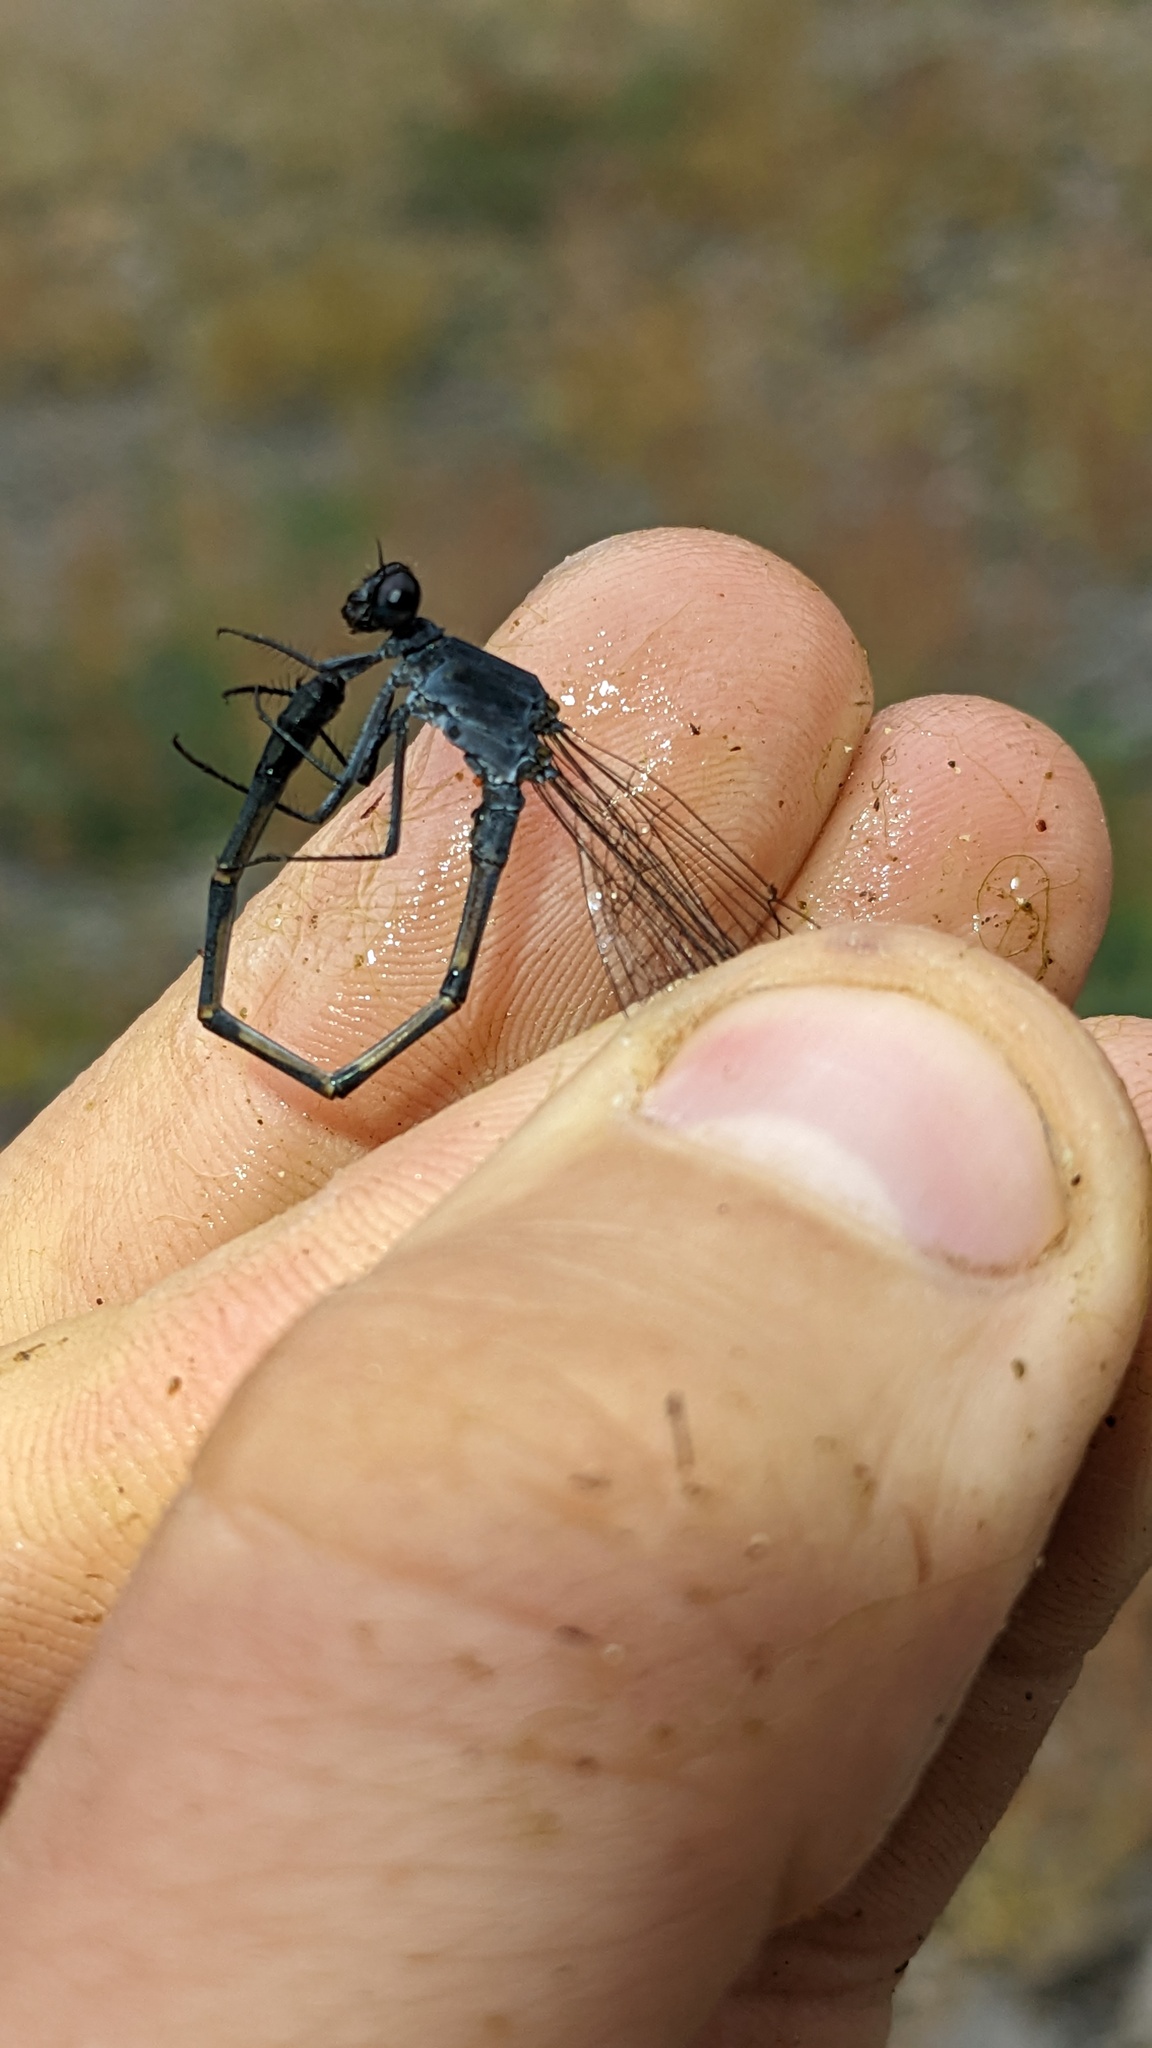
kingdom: Animalia
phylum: Arthropoda
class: Insecta
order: Odonata
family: Coenagrionidae
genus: Argia
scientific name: Argia lugens
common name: Sooty dancer
